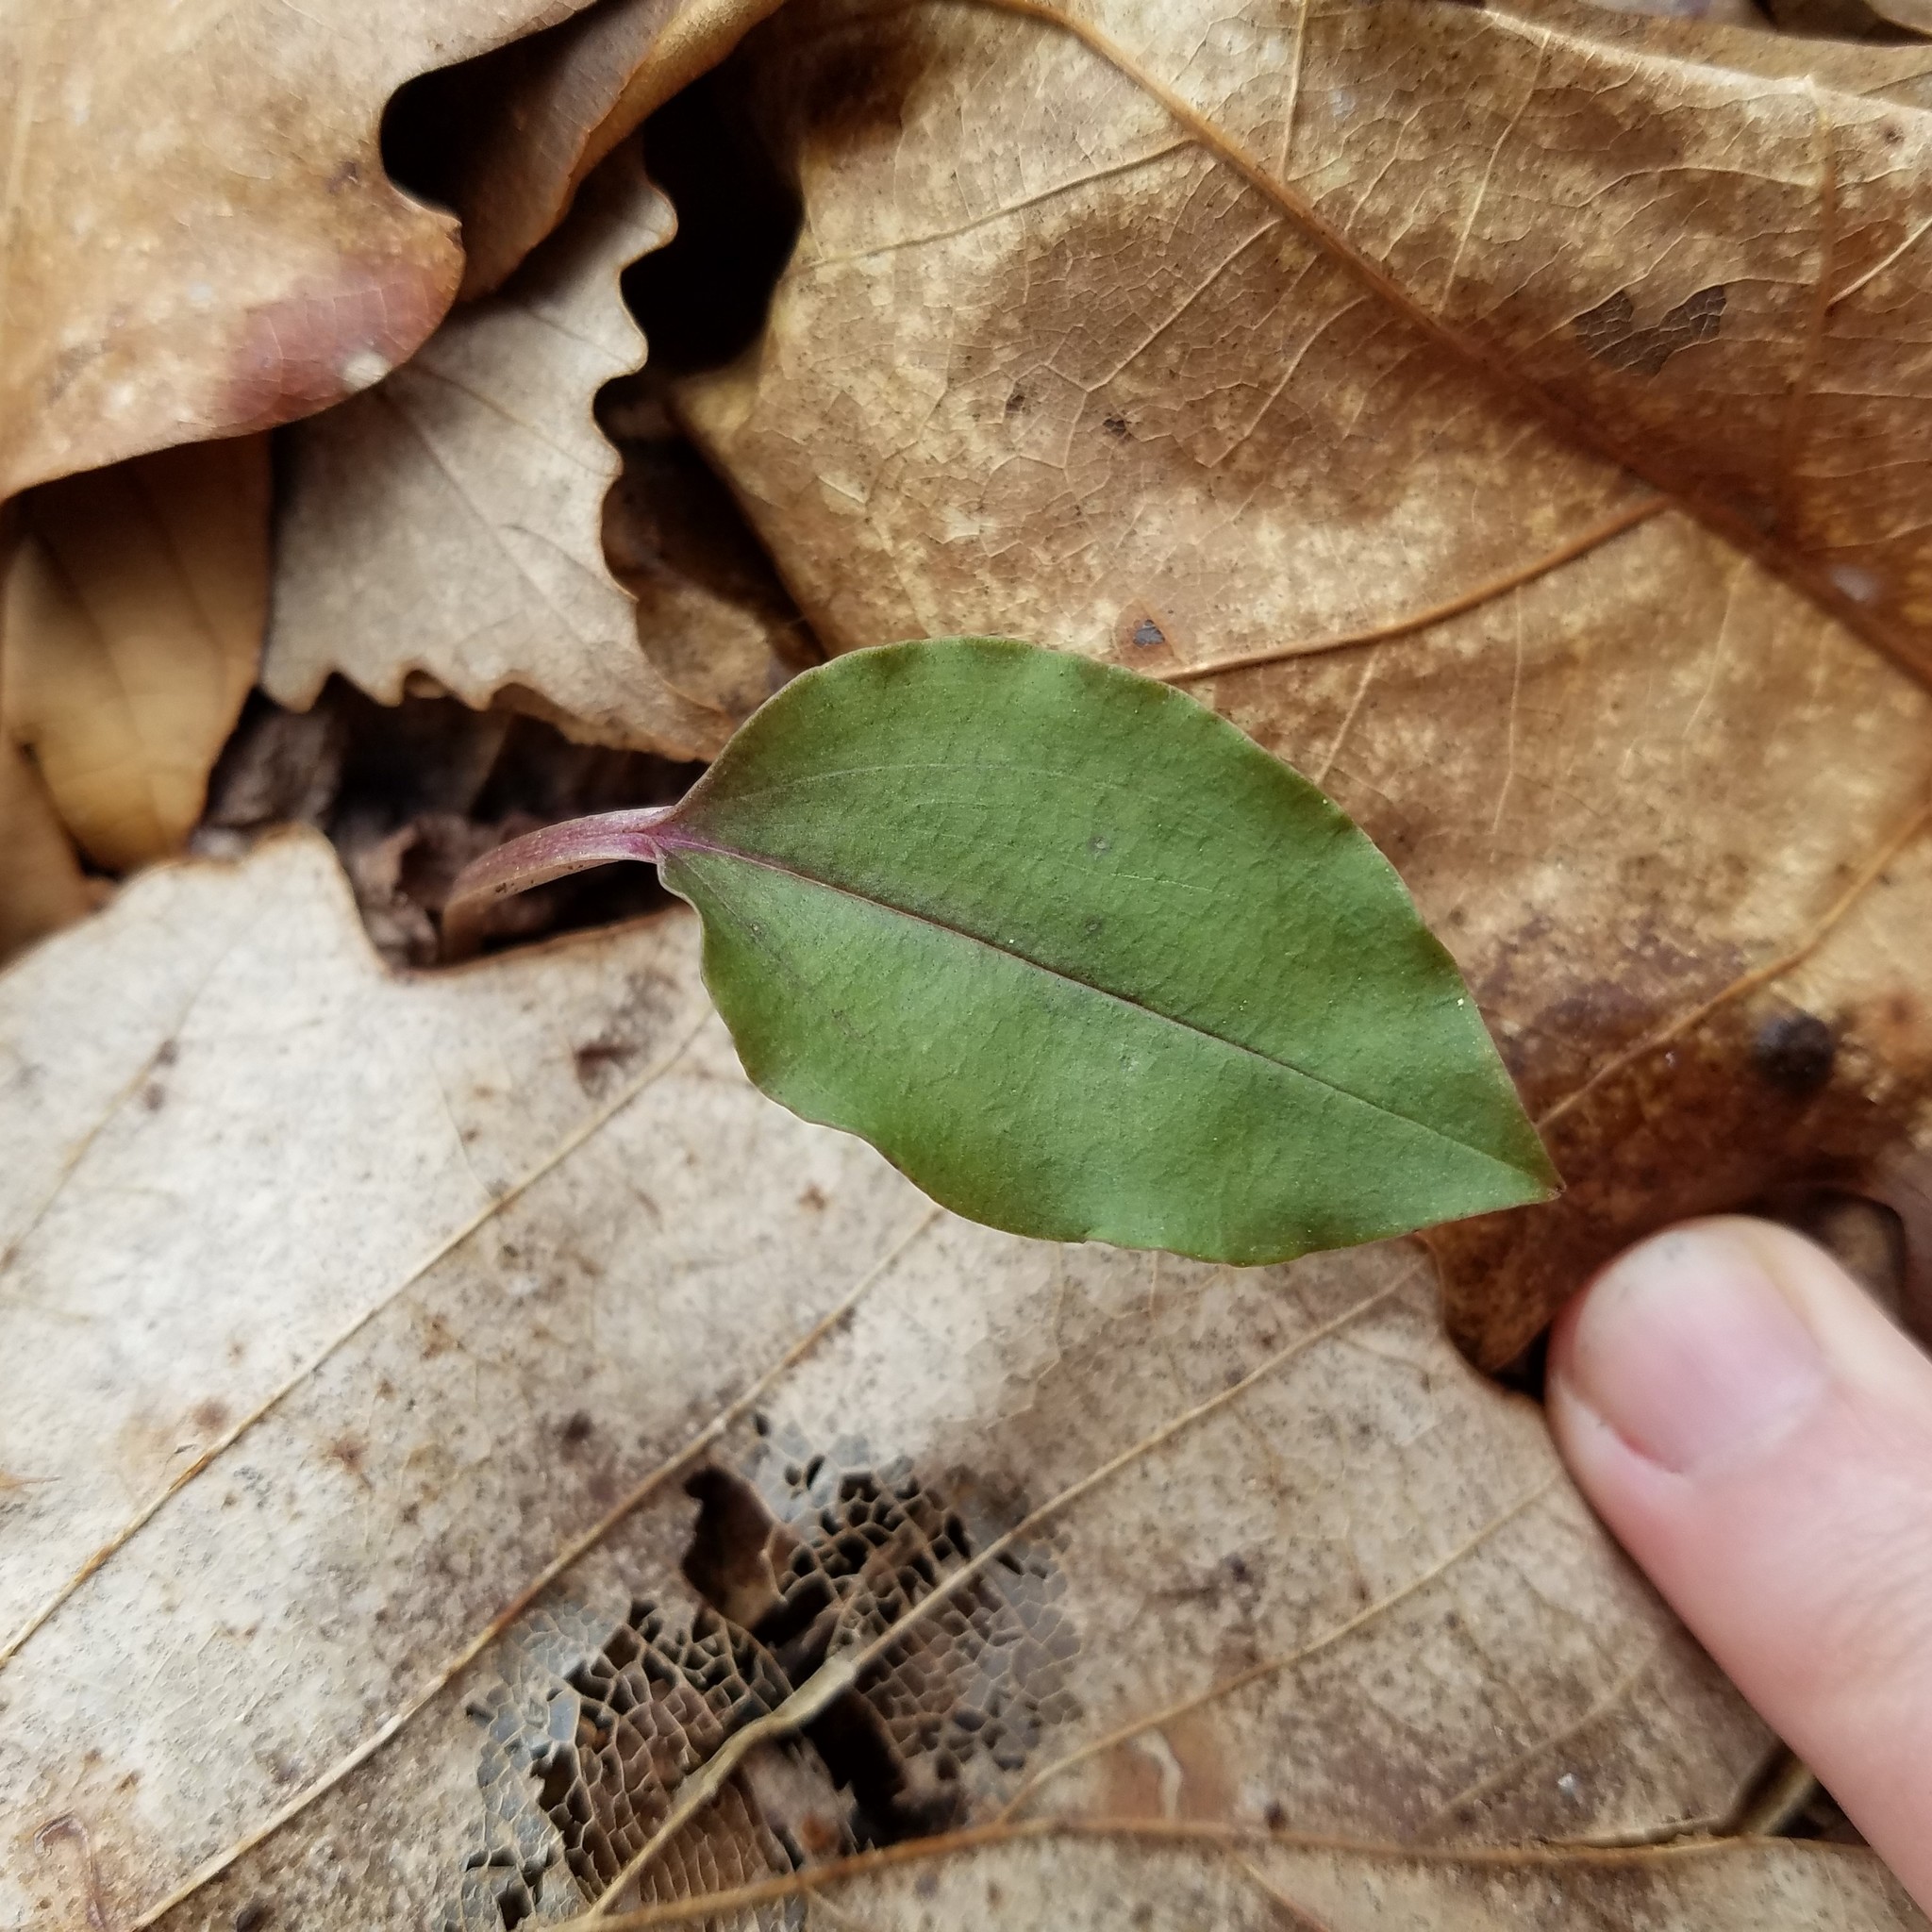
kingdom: Plantae
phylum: Tracheophyta
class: Liliopsida
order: Asparagales
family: Orchidaceae
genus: Tipularia
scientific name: Tipularia discolor
